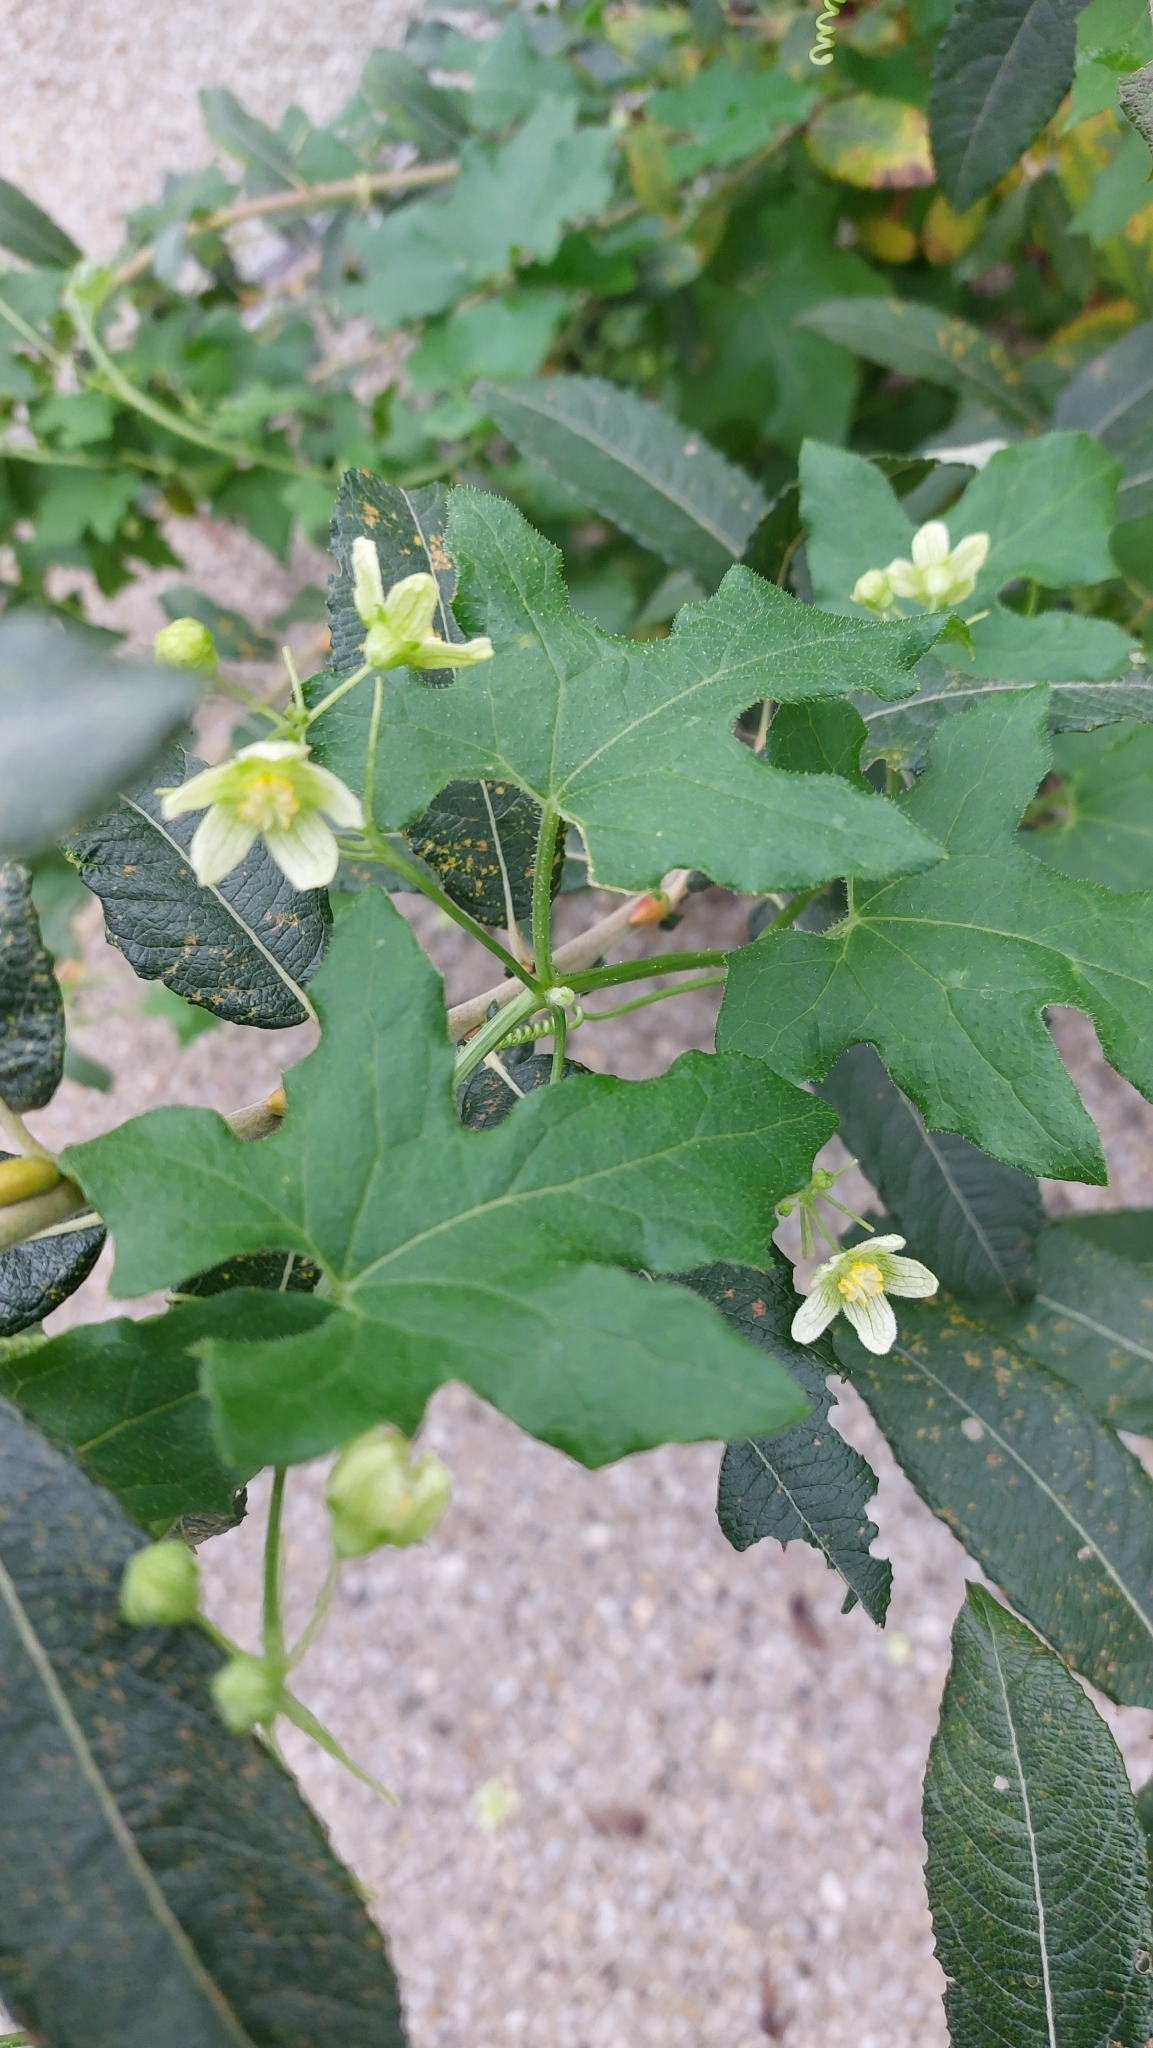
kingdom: Plantae
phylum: Tracheophyta
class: Magnoliopsida
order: Cucurbitales
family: Cucurbitaceae
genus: Bryonia
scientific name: Bryonia cretica
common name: Cretan bryony
